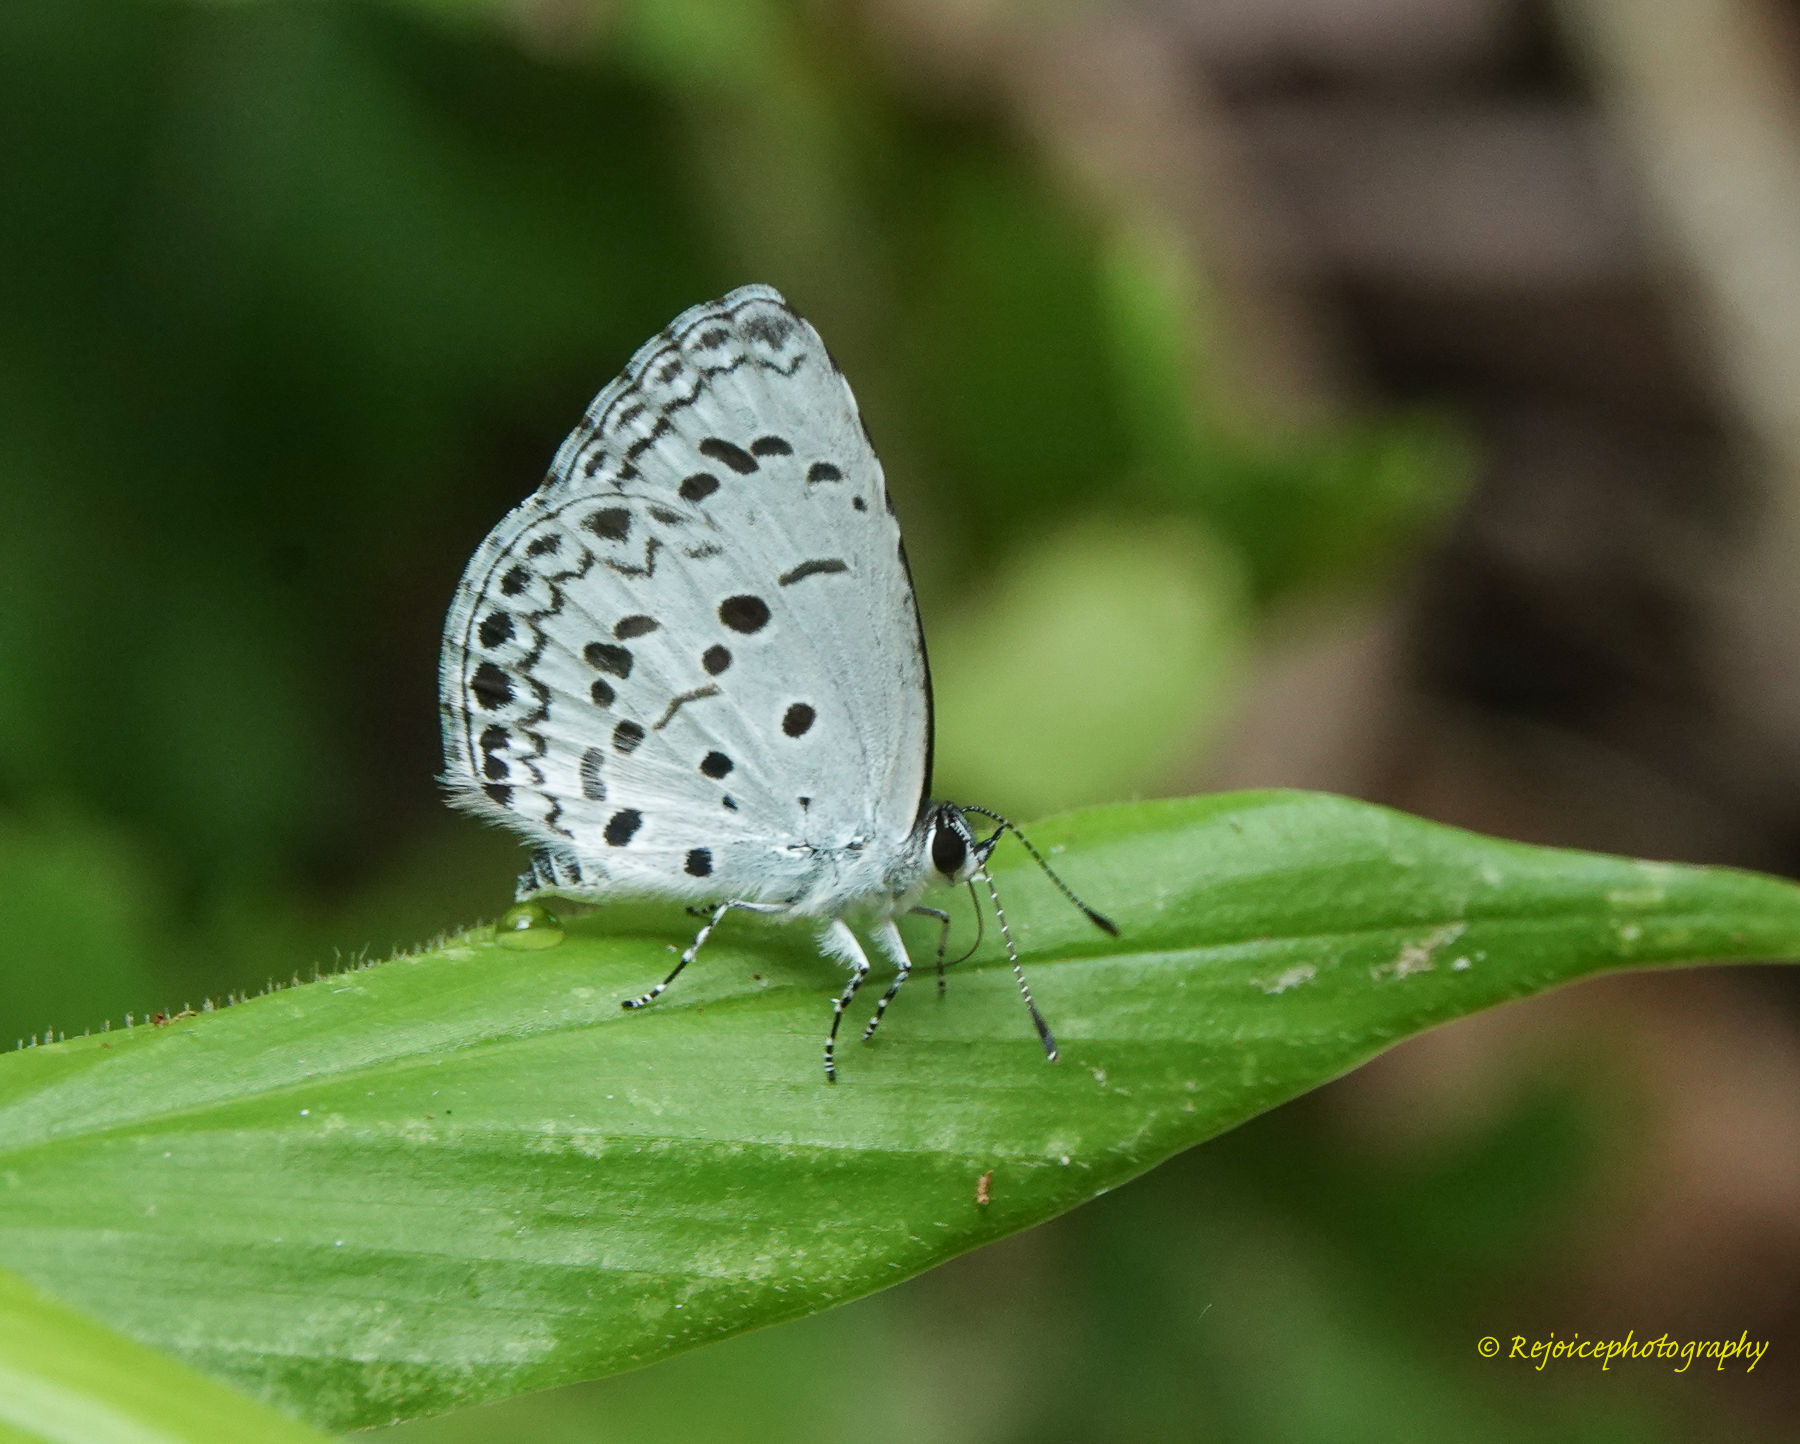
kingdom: Animalia
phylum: Arthropoda
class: Insecta
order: Lepidoptera
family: Lycaenidae
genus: Acytolepis
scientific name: Acytolepis puspa
